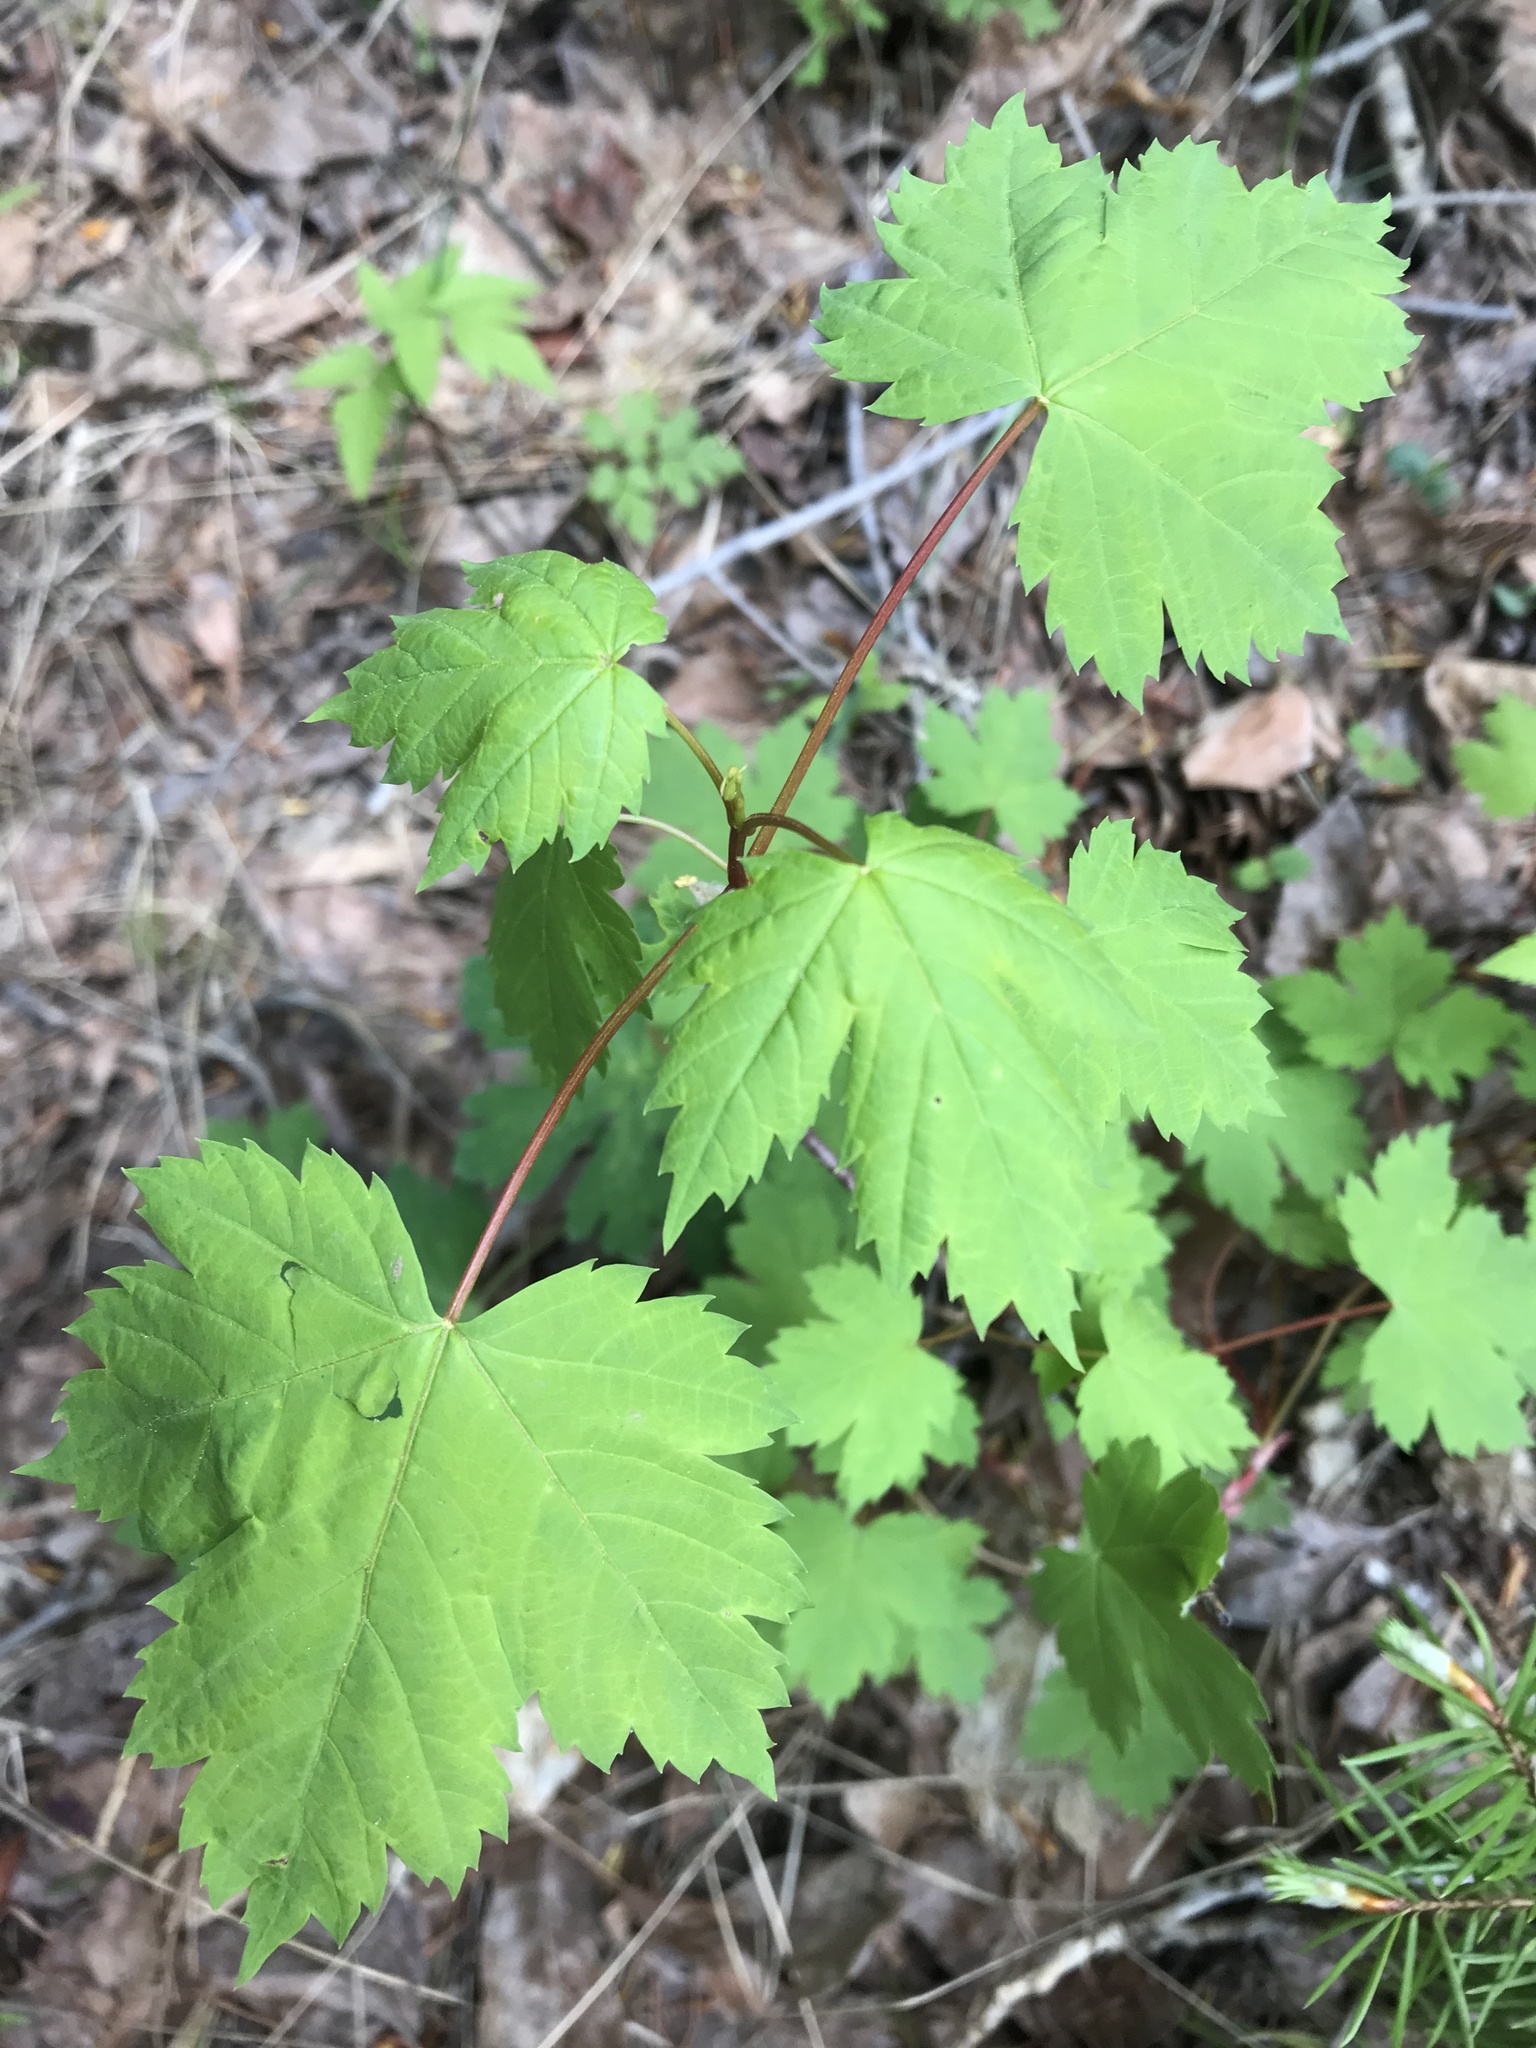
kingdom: Plantae
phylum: Tracheophyta
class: Magnoliopsida
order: Sapindales
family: Sapindaceae
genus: Acer
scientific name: Acer glabrum
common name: Rocky mountain maple
